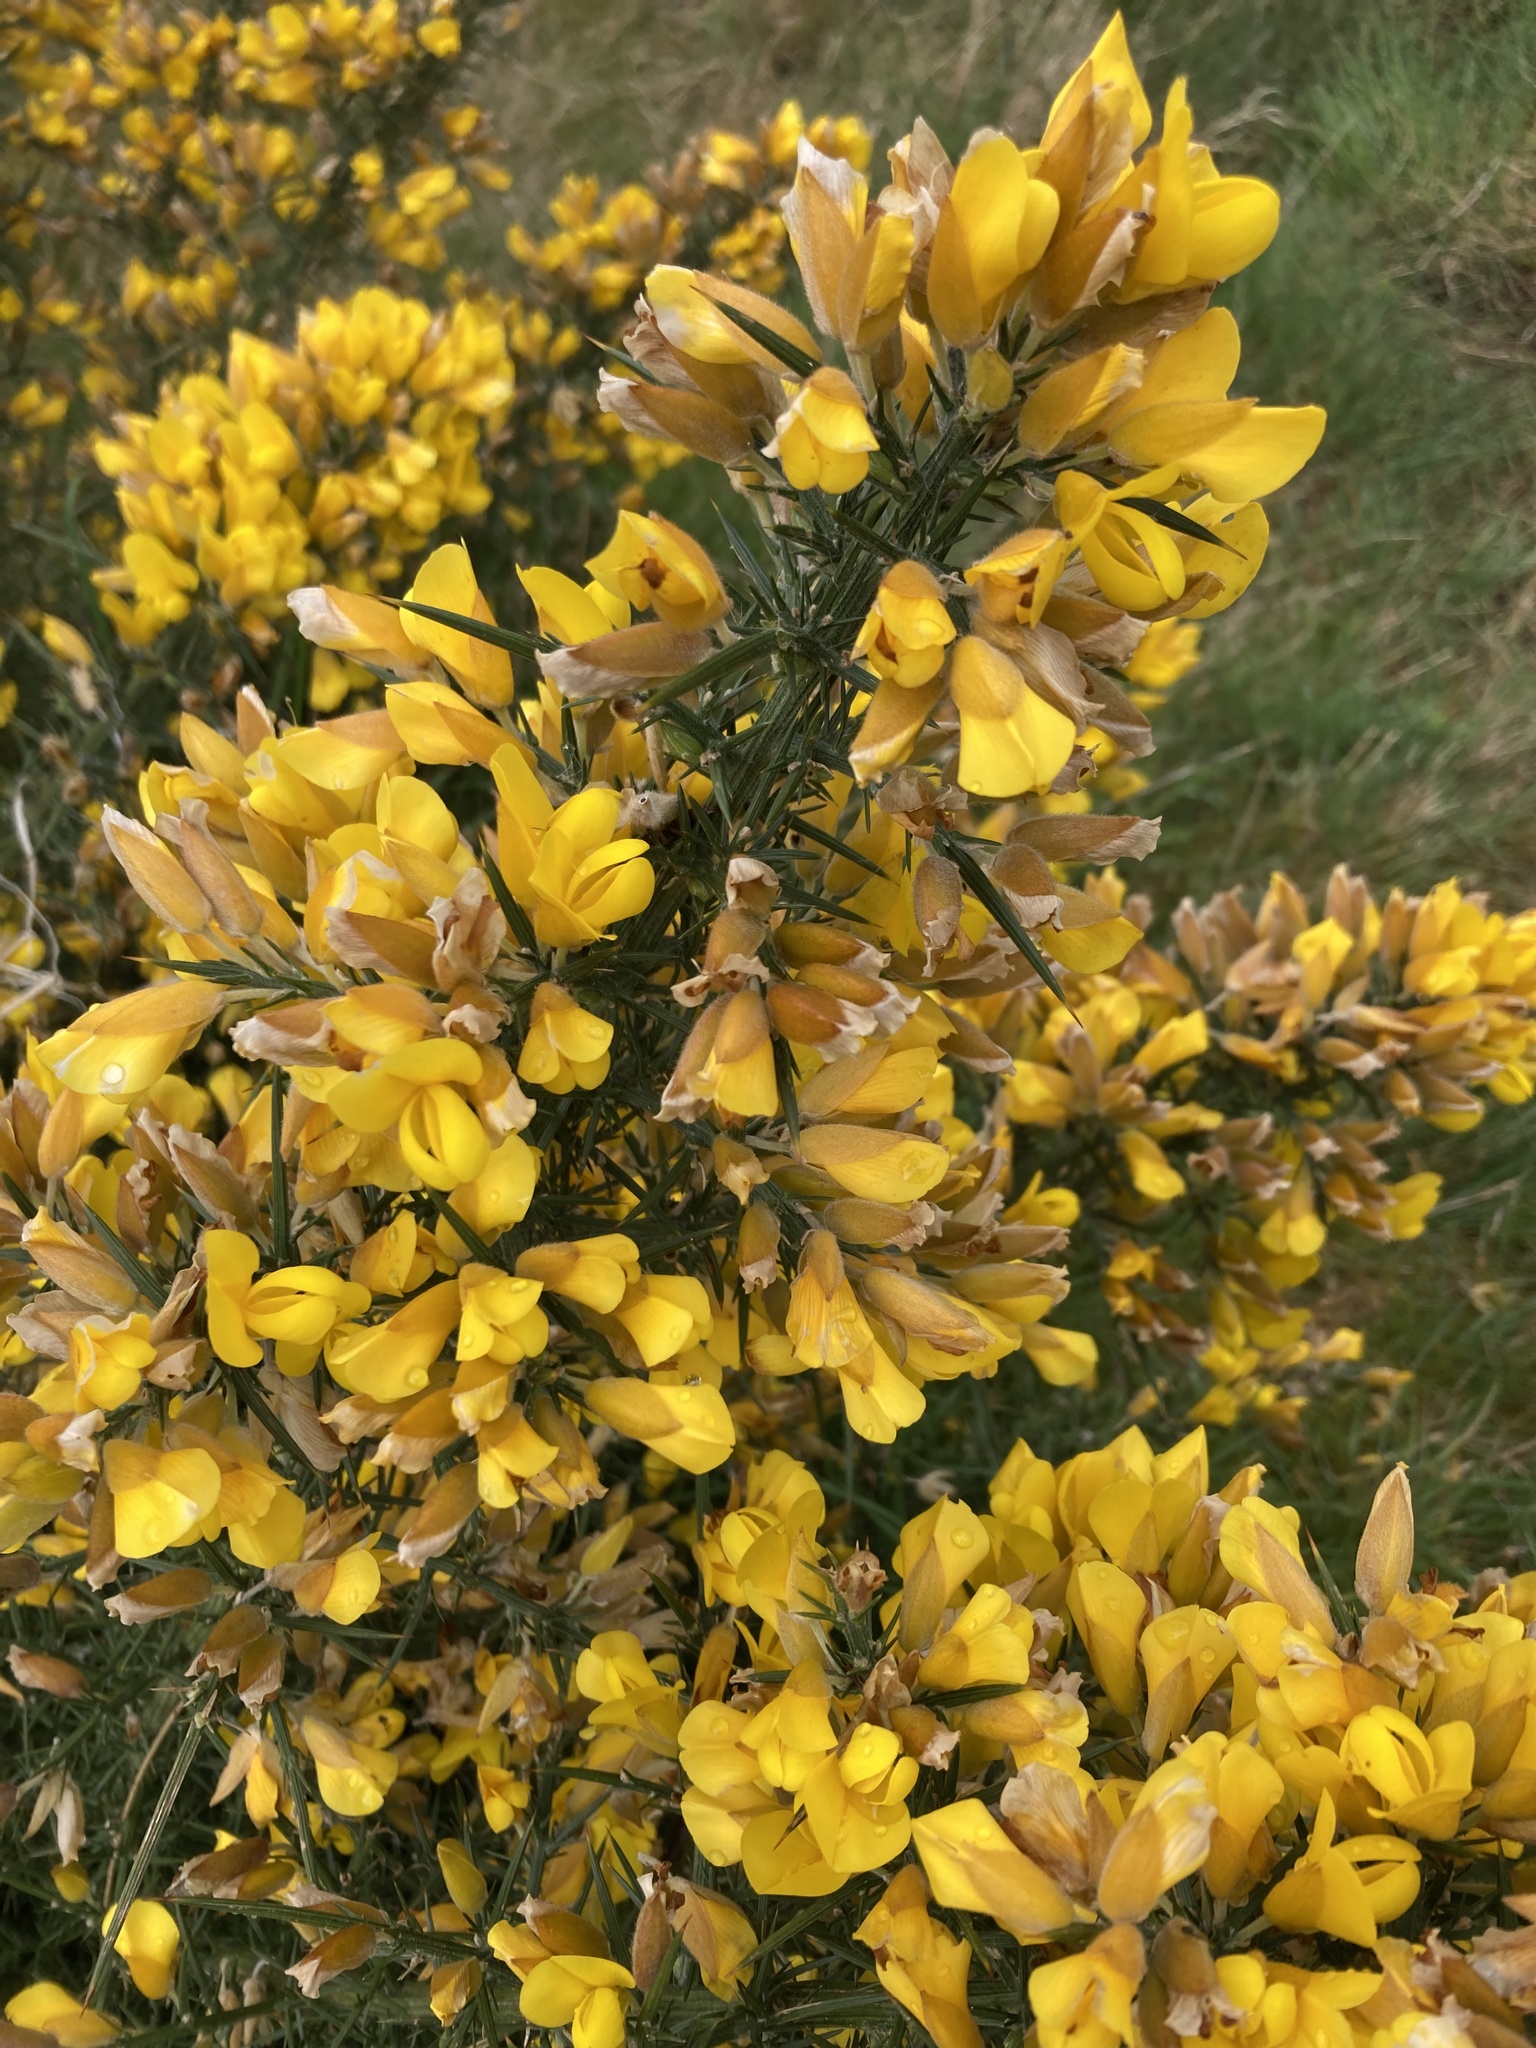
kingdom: Plantae
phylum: Tracheophyta
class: Magnoliopsida
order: Fabales
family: Fabaceae
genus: Ulex
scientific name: Ulex europaeus
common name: Common gorse
